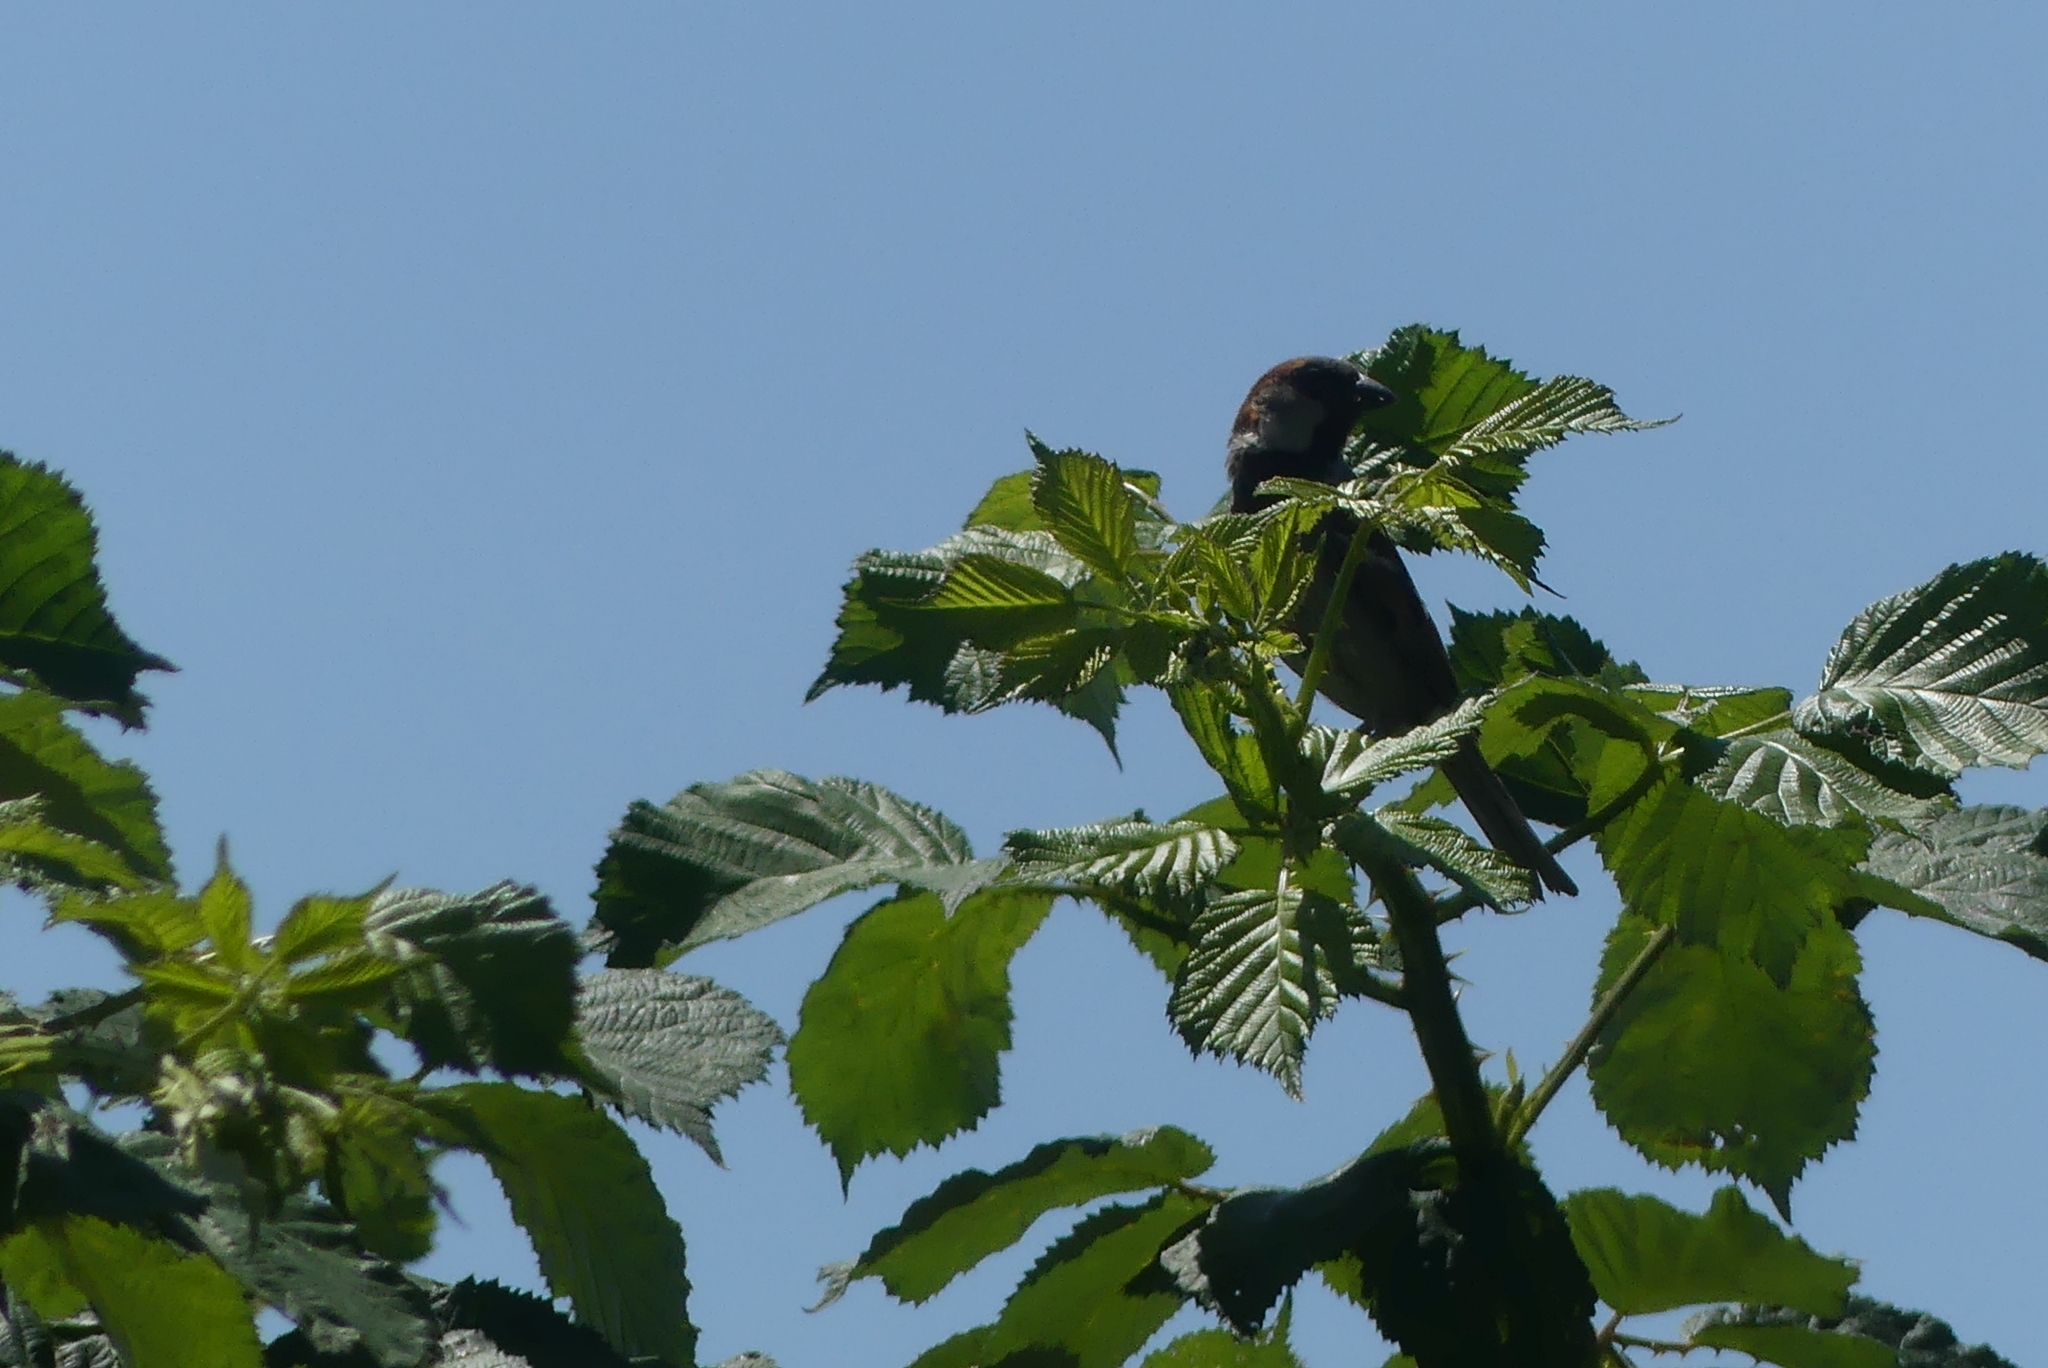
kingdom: Animalia
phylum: Chordata
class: Aves
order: Passeriformes
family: Passeridae
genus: Passer
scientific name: Passer domesticus
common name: House sparrow
